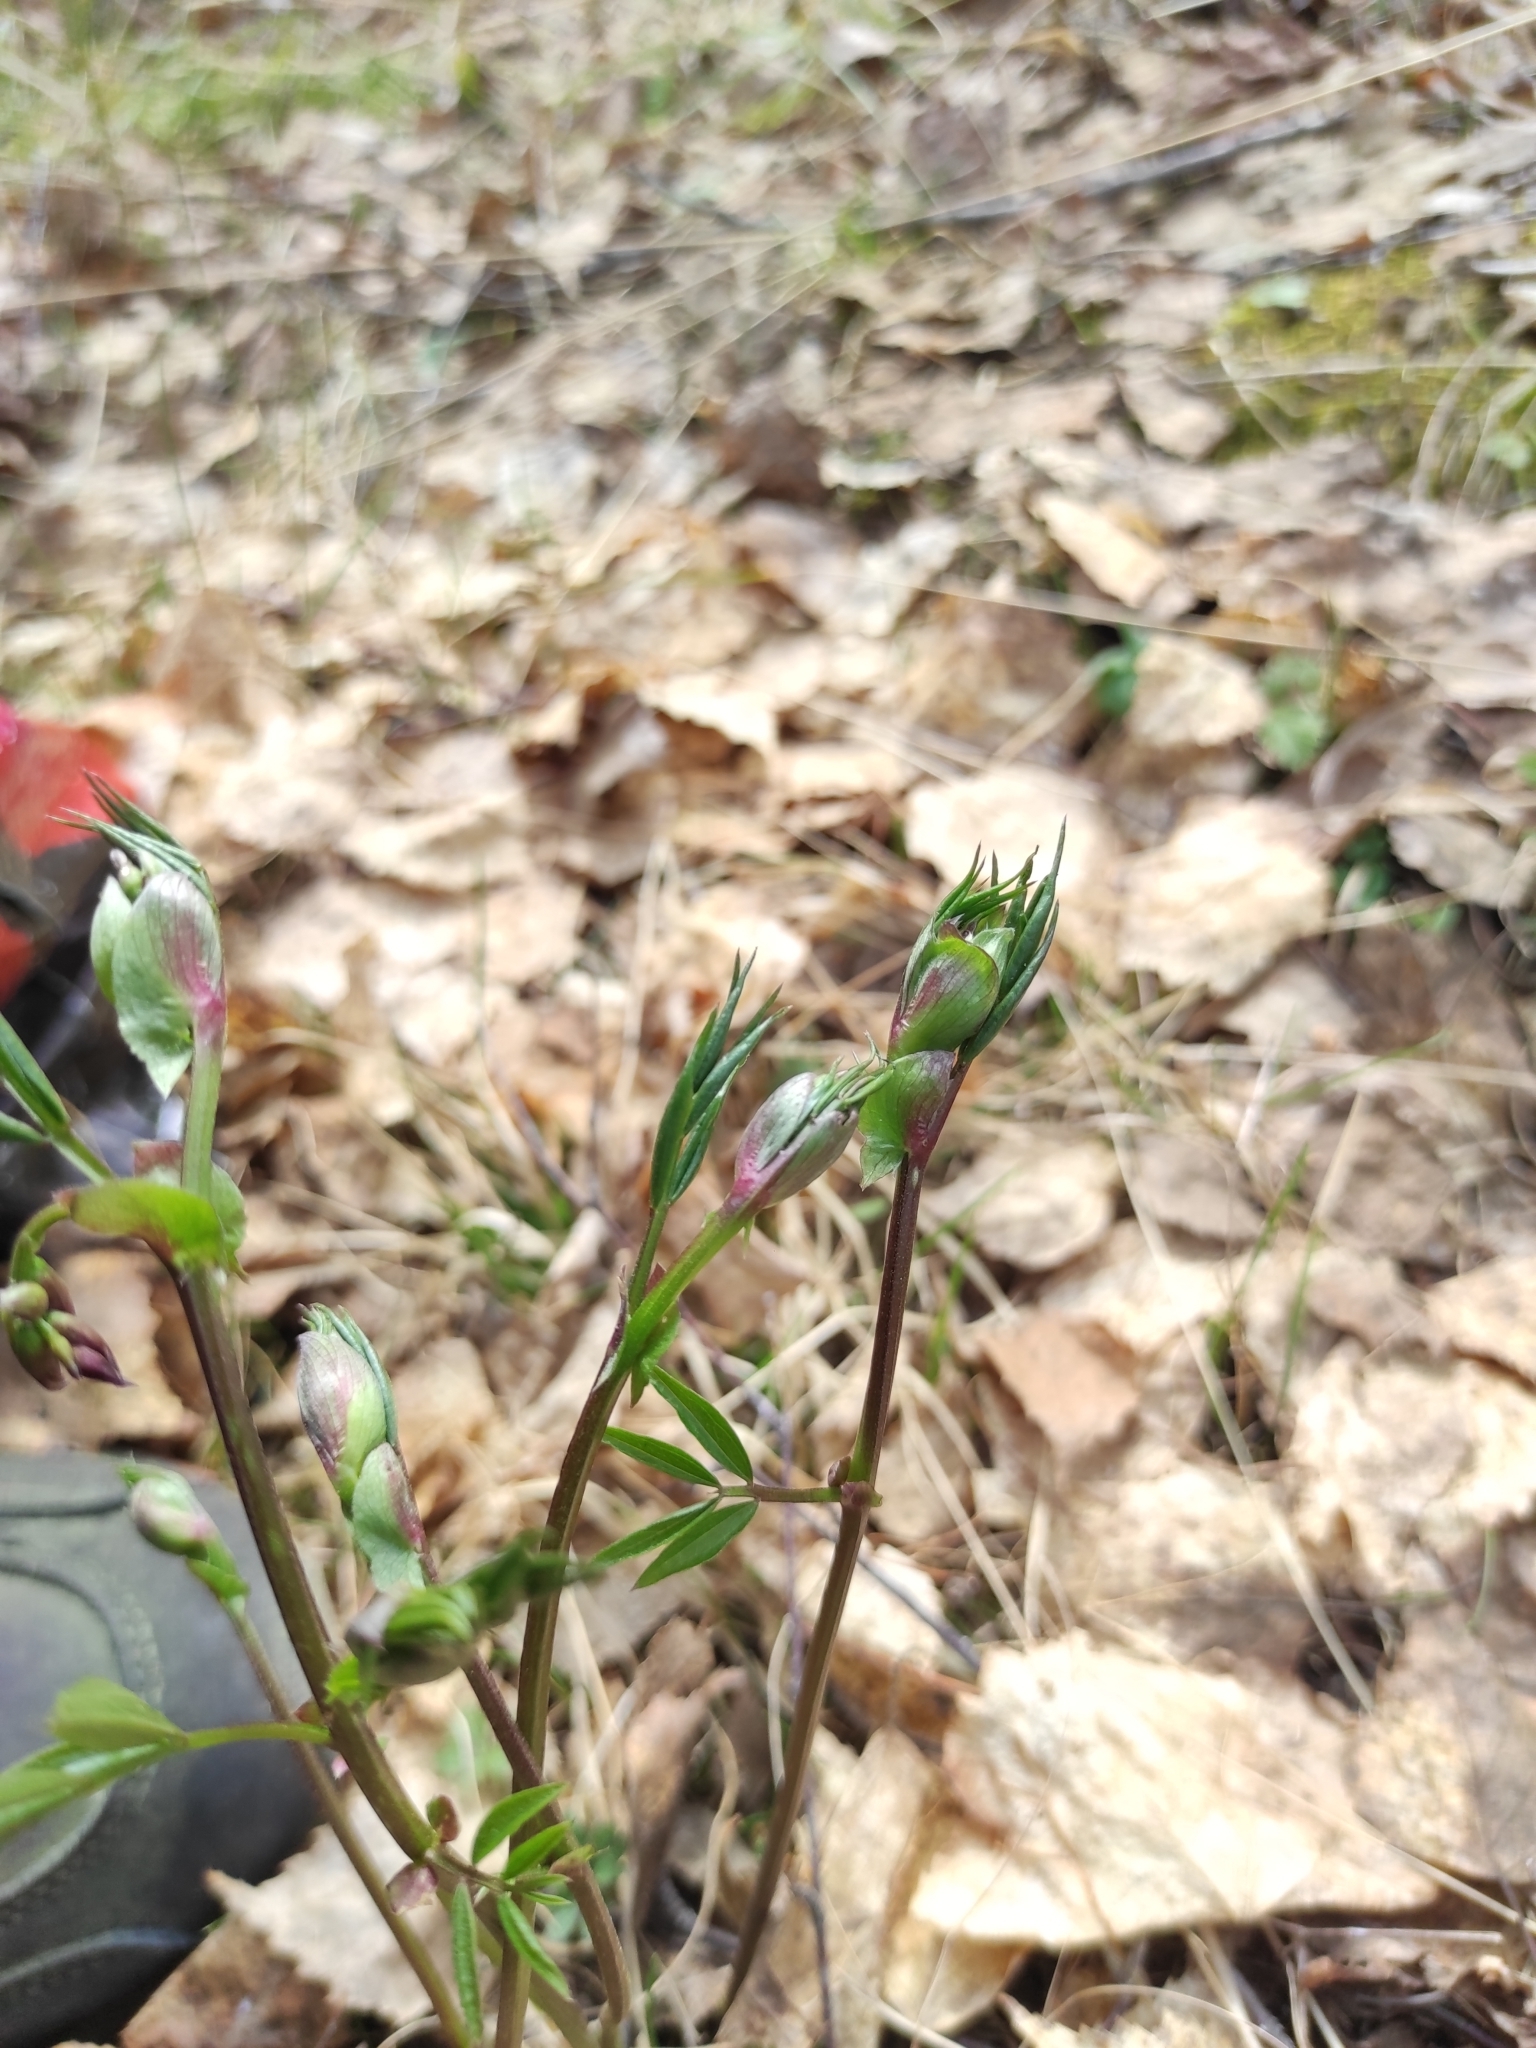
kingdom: Plantae
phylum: Tracheophyta
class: Magnoliopsida
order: Fabales
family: Fabaceae
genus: Lathyrus
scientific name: Lathyrus vernus
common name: Spring pea
